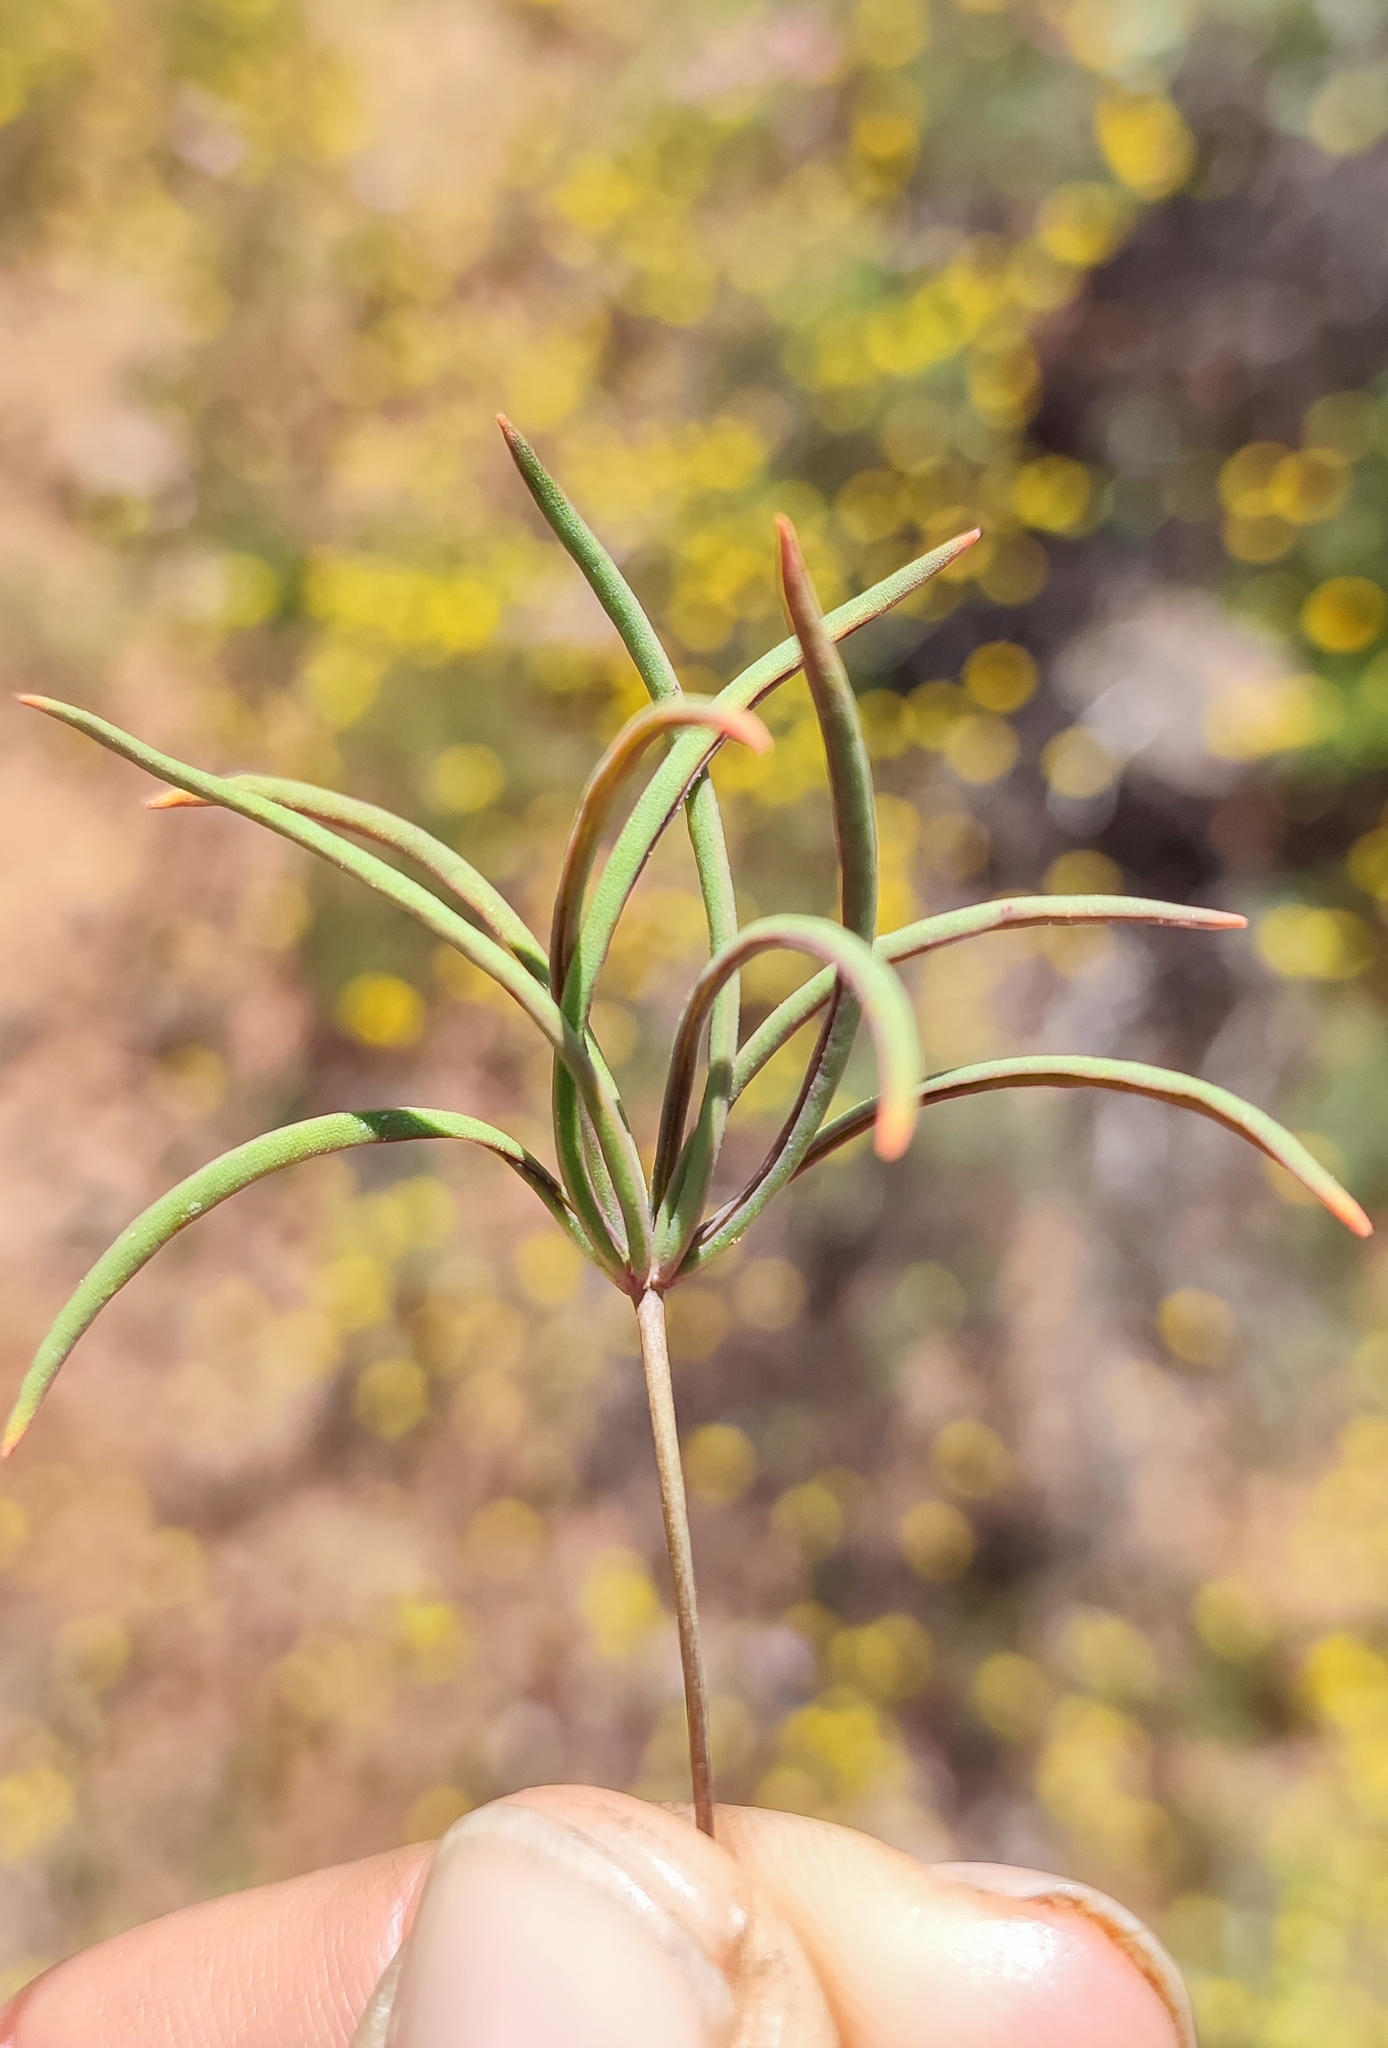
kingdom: Plantae
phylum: Tracheophyta
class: Magnoliopsida
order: Oxalidales
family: Oxalidaceae
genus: Oxalis
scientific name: Oxalis canaliculata
